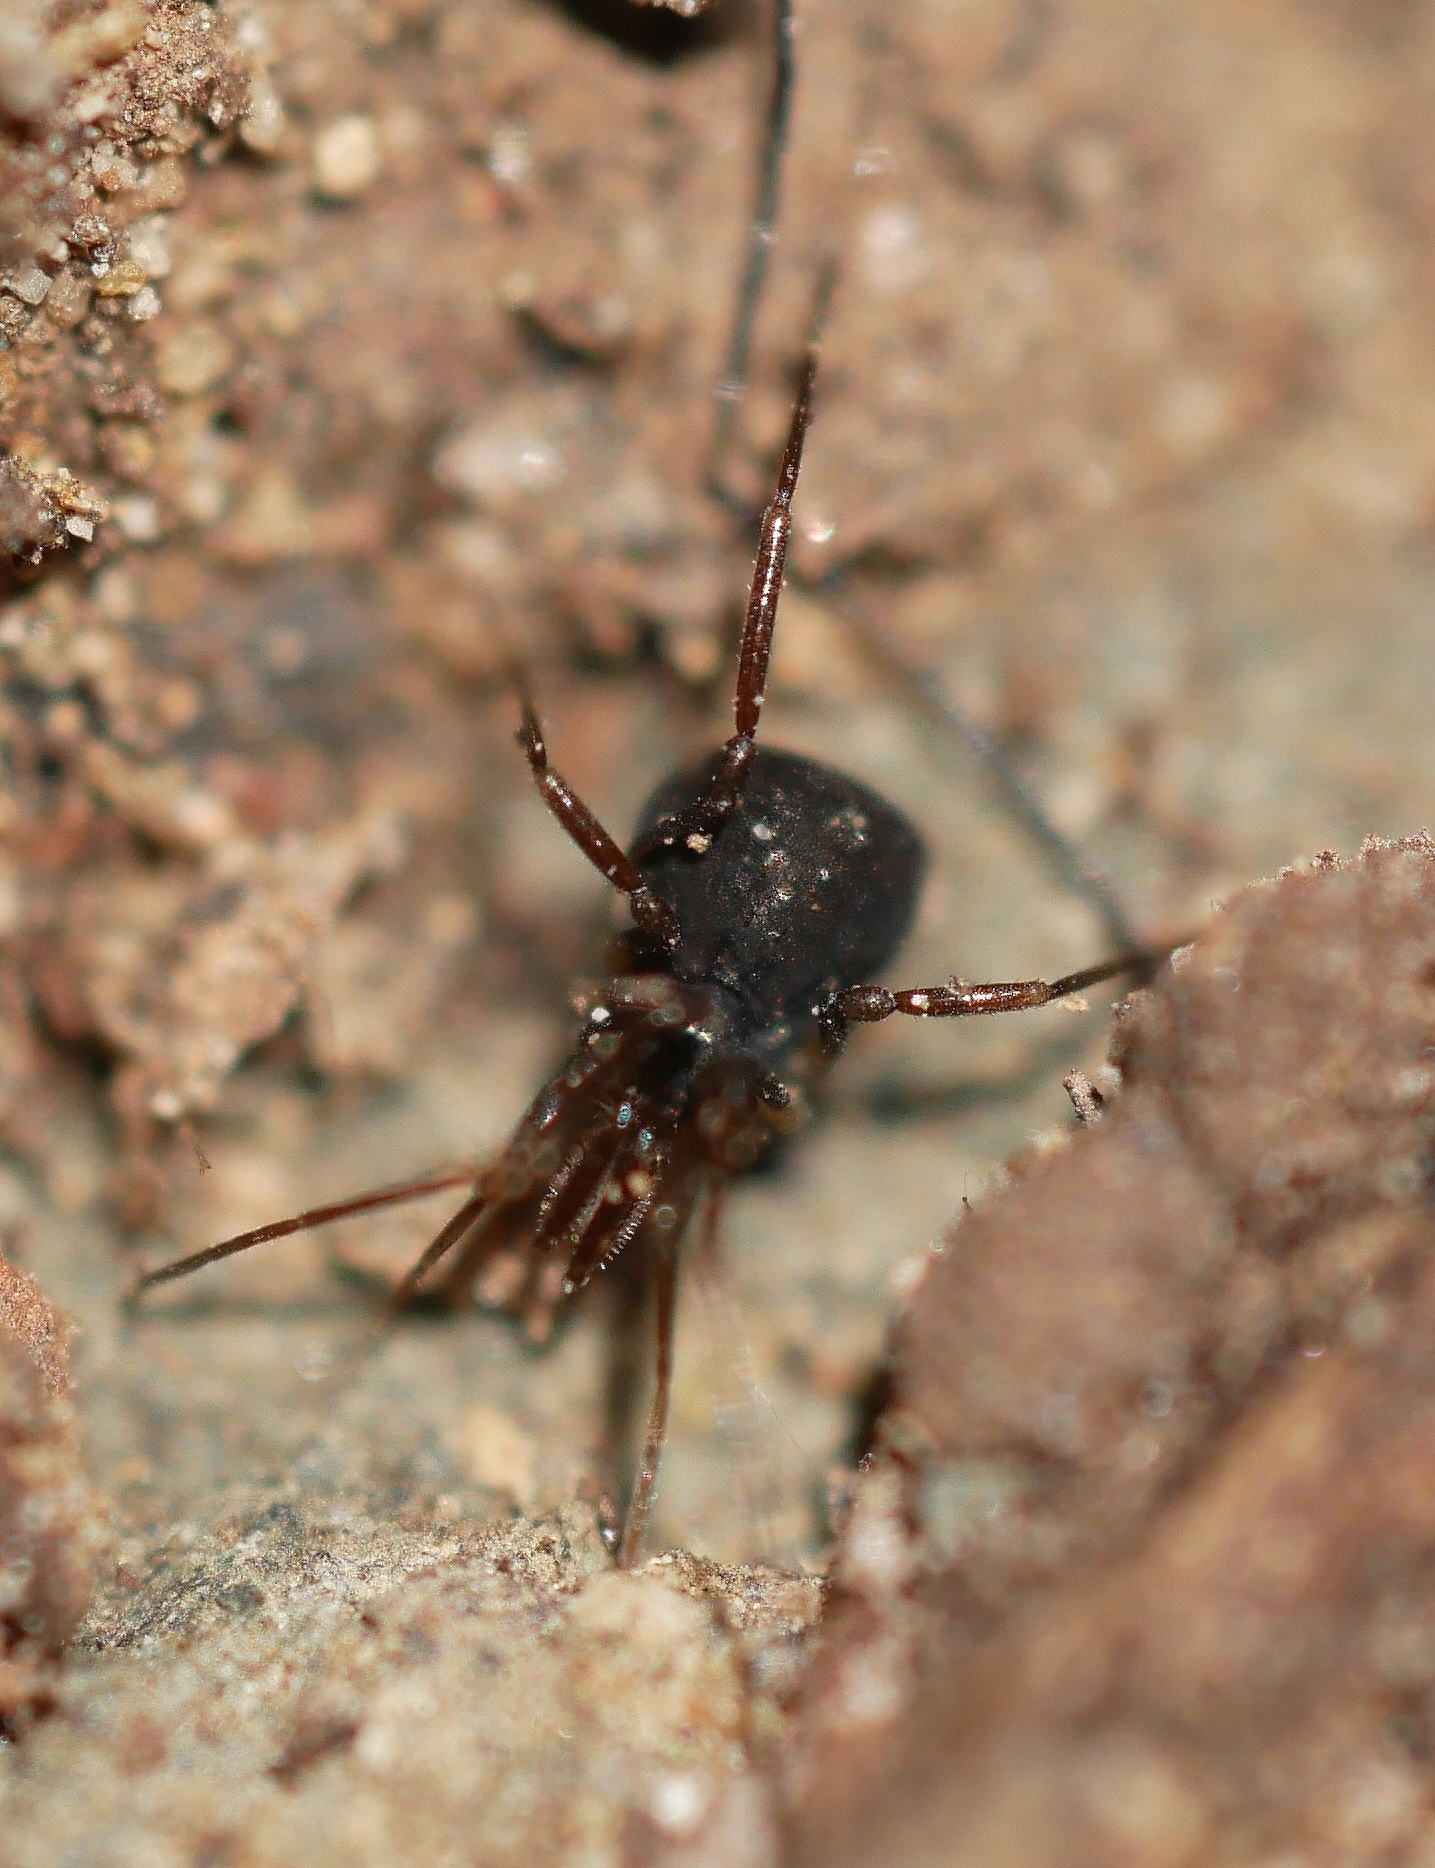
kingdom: Animalia
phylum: Arthropoda
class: Arachnida
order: Opiliones
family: Taracidae
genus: Hesperonemastoma
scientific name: Hesperonemastoma modestum
